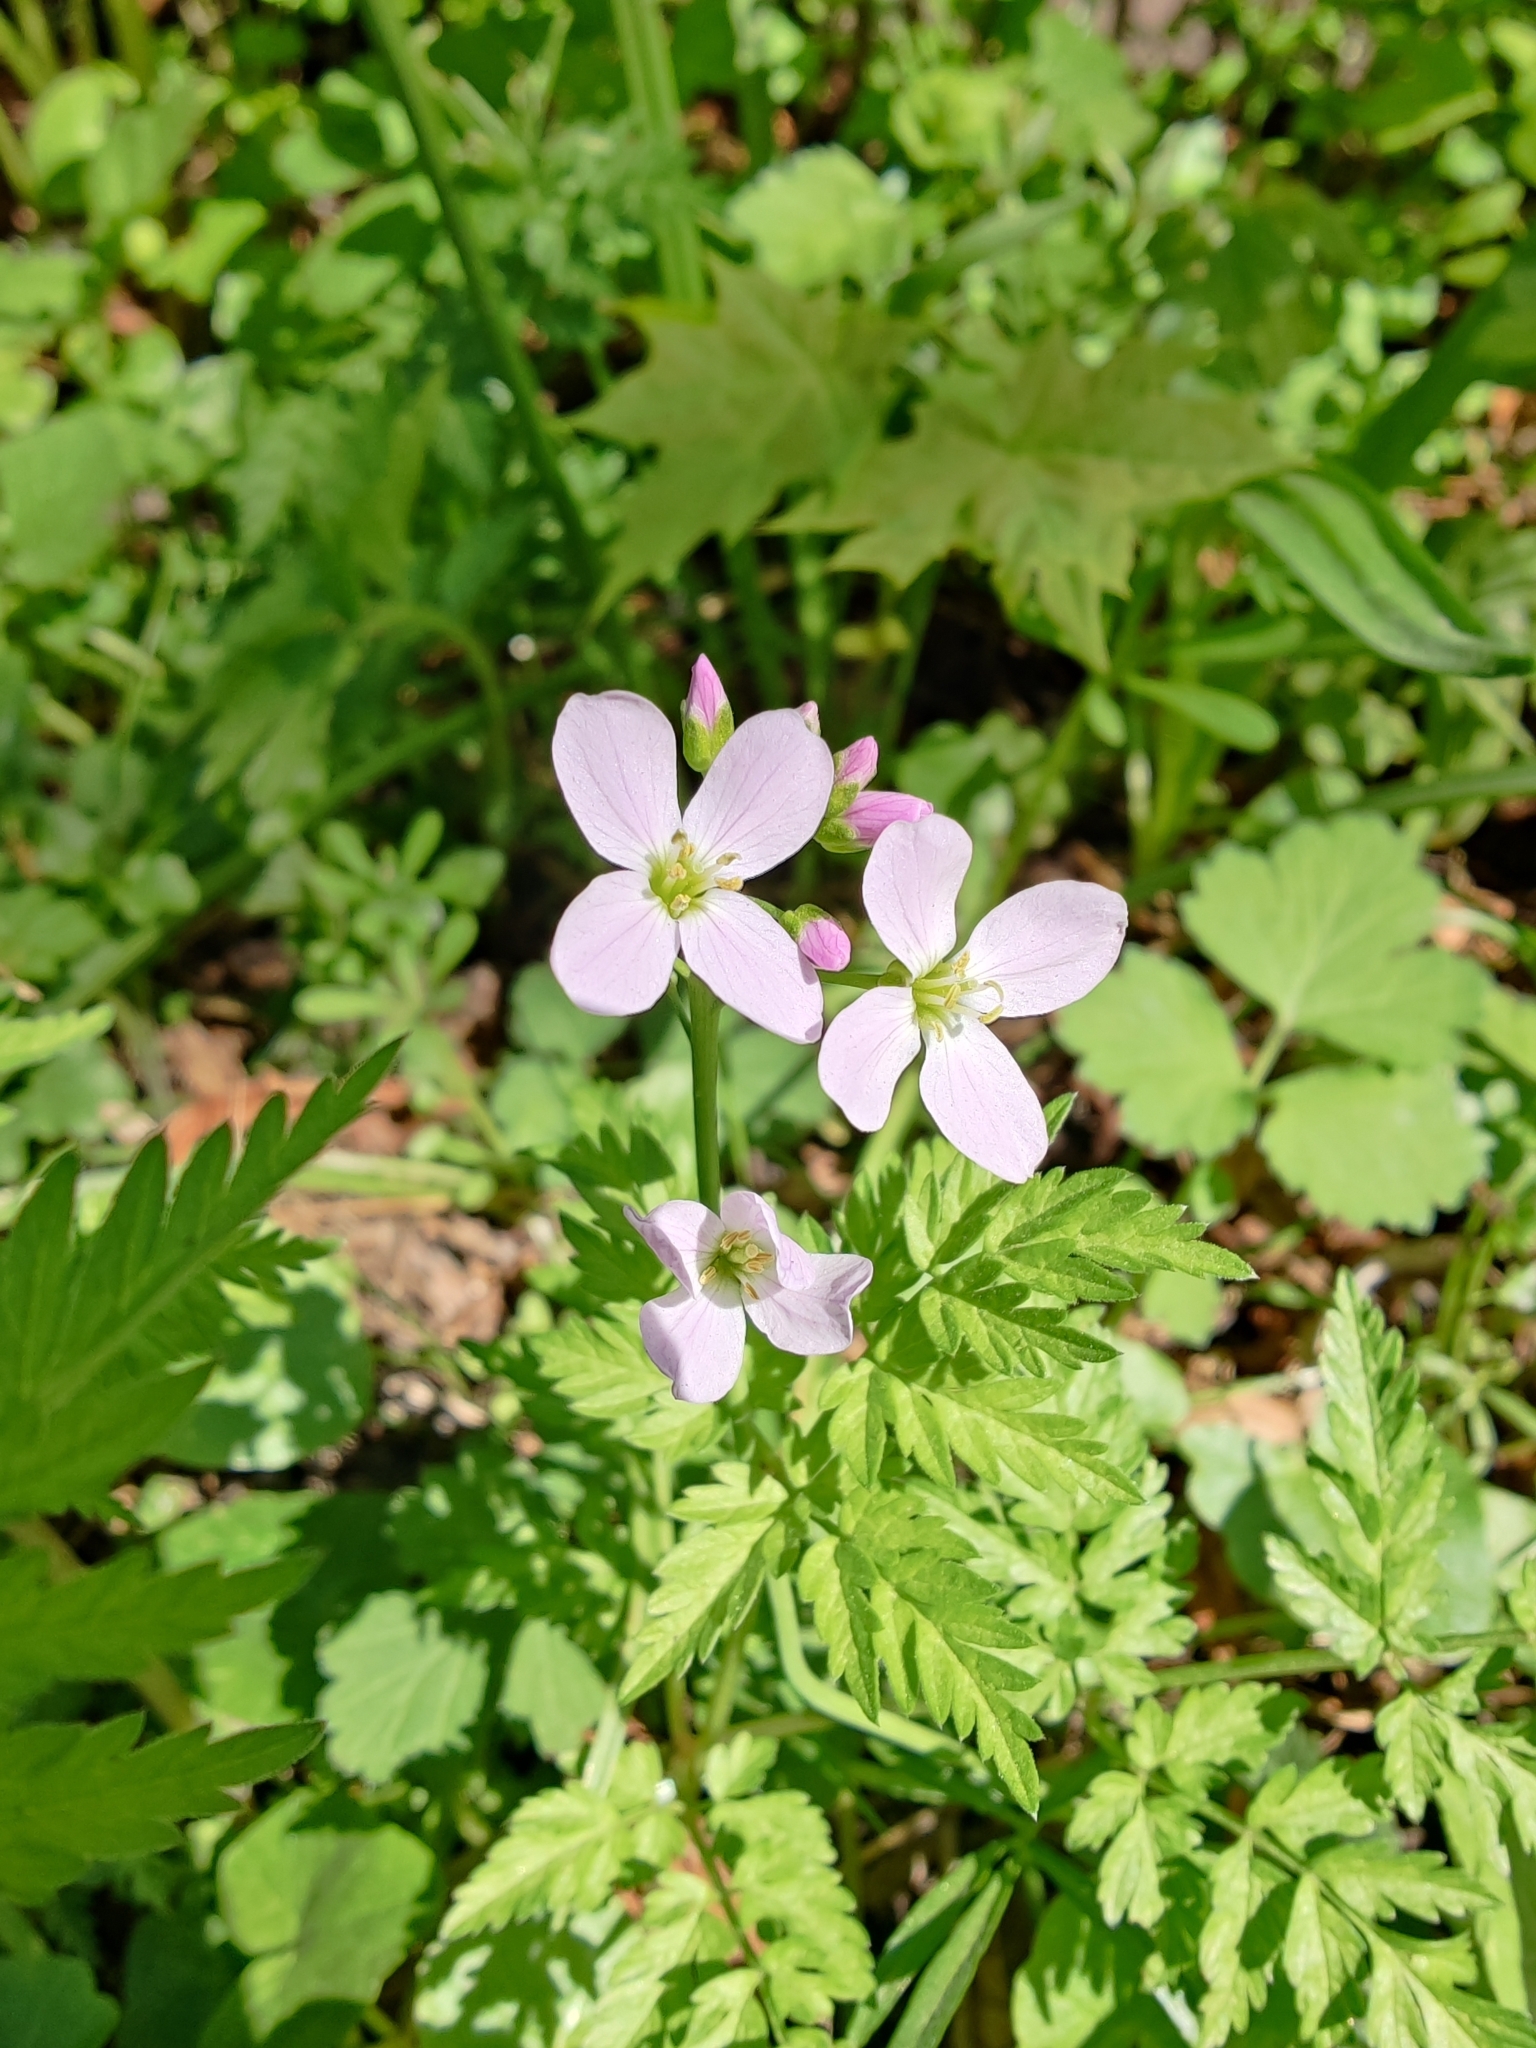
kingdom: Plantae
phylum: Tracheophyta
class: Magnoliopsida
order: Brassicales
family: Brassicaceae
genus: Cardamine
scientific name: Cardamine pratensis
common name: Cuckoo flower
